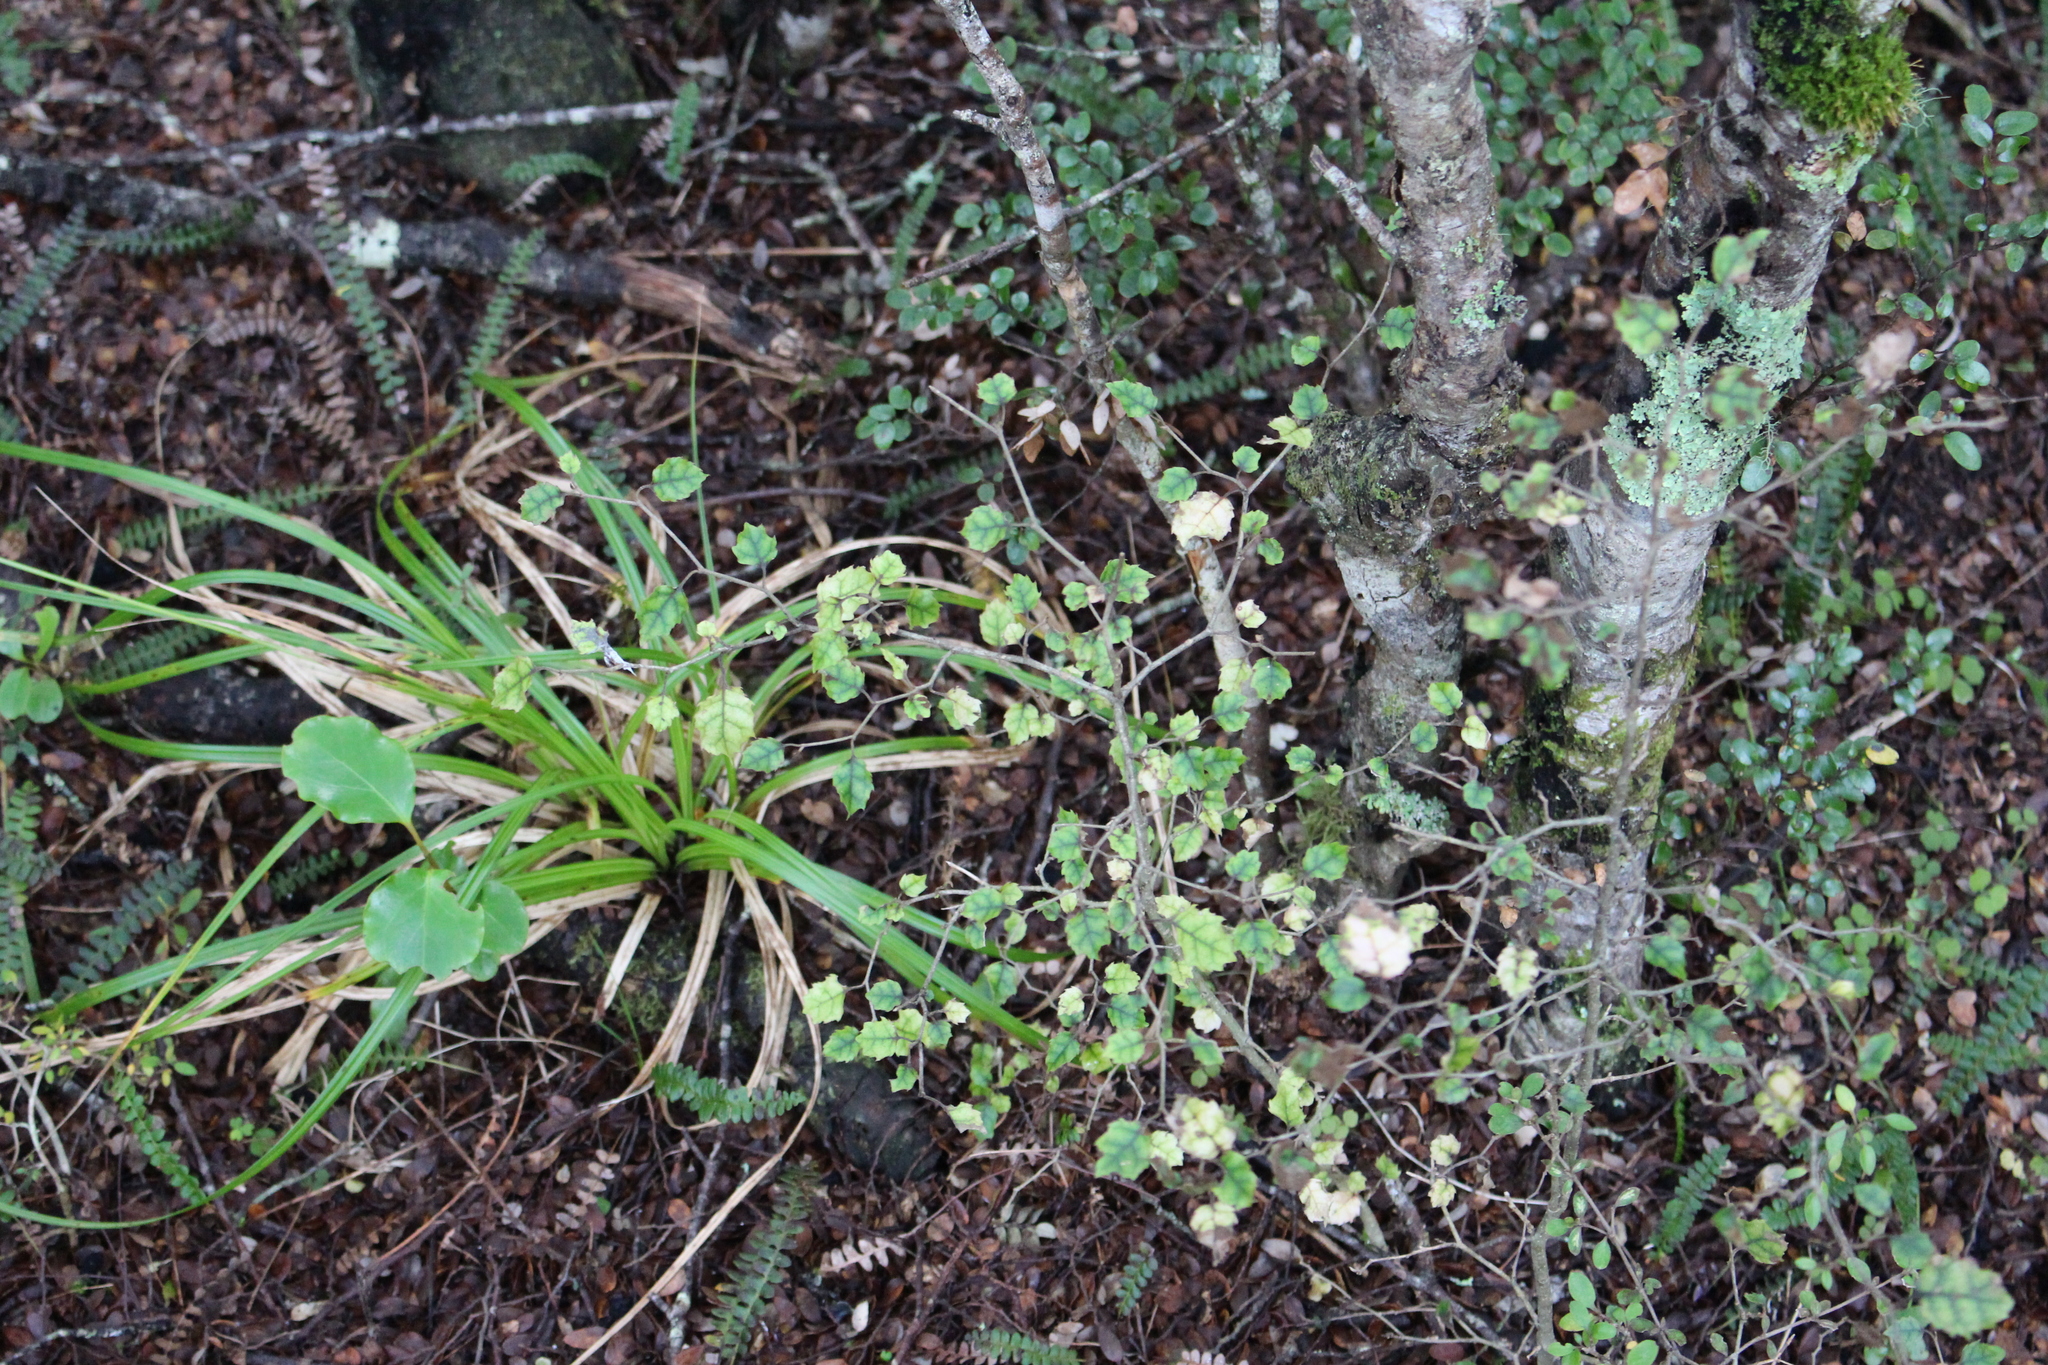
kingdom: Plantae
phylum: Tracheophyta
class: Magnoliopsida
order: Asterales
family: Rousseaceae
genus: Carpodetus
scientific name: Carpodetus serratus
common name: White mapau
